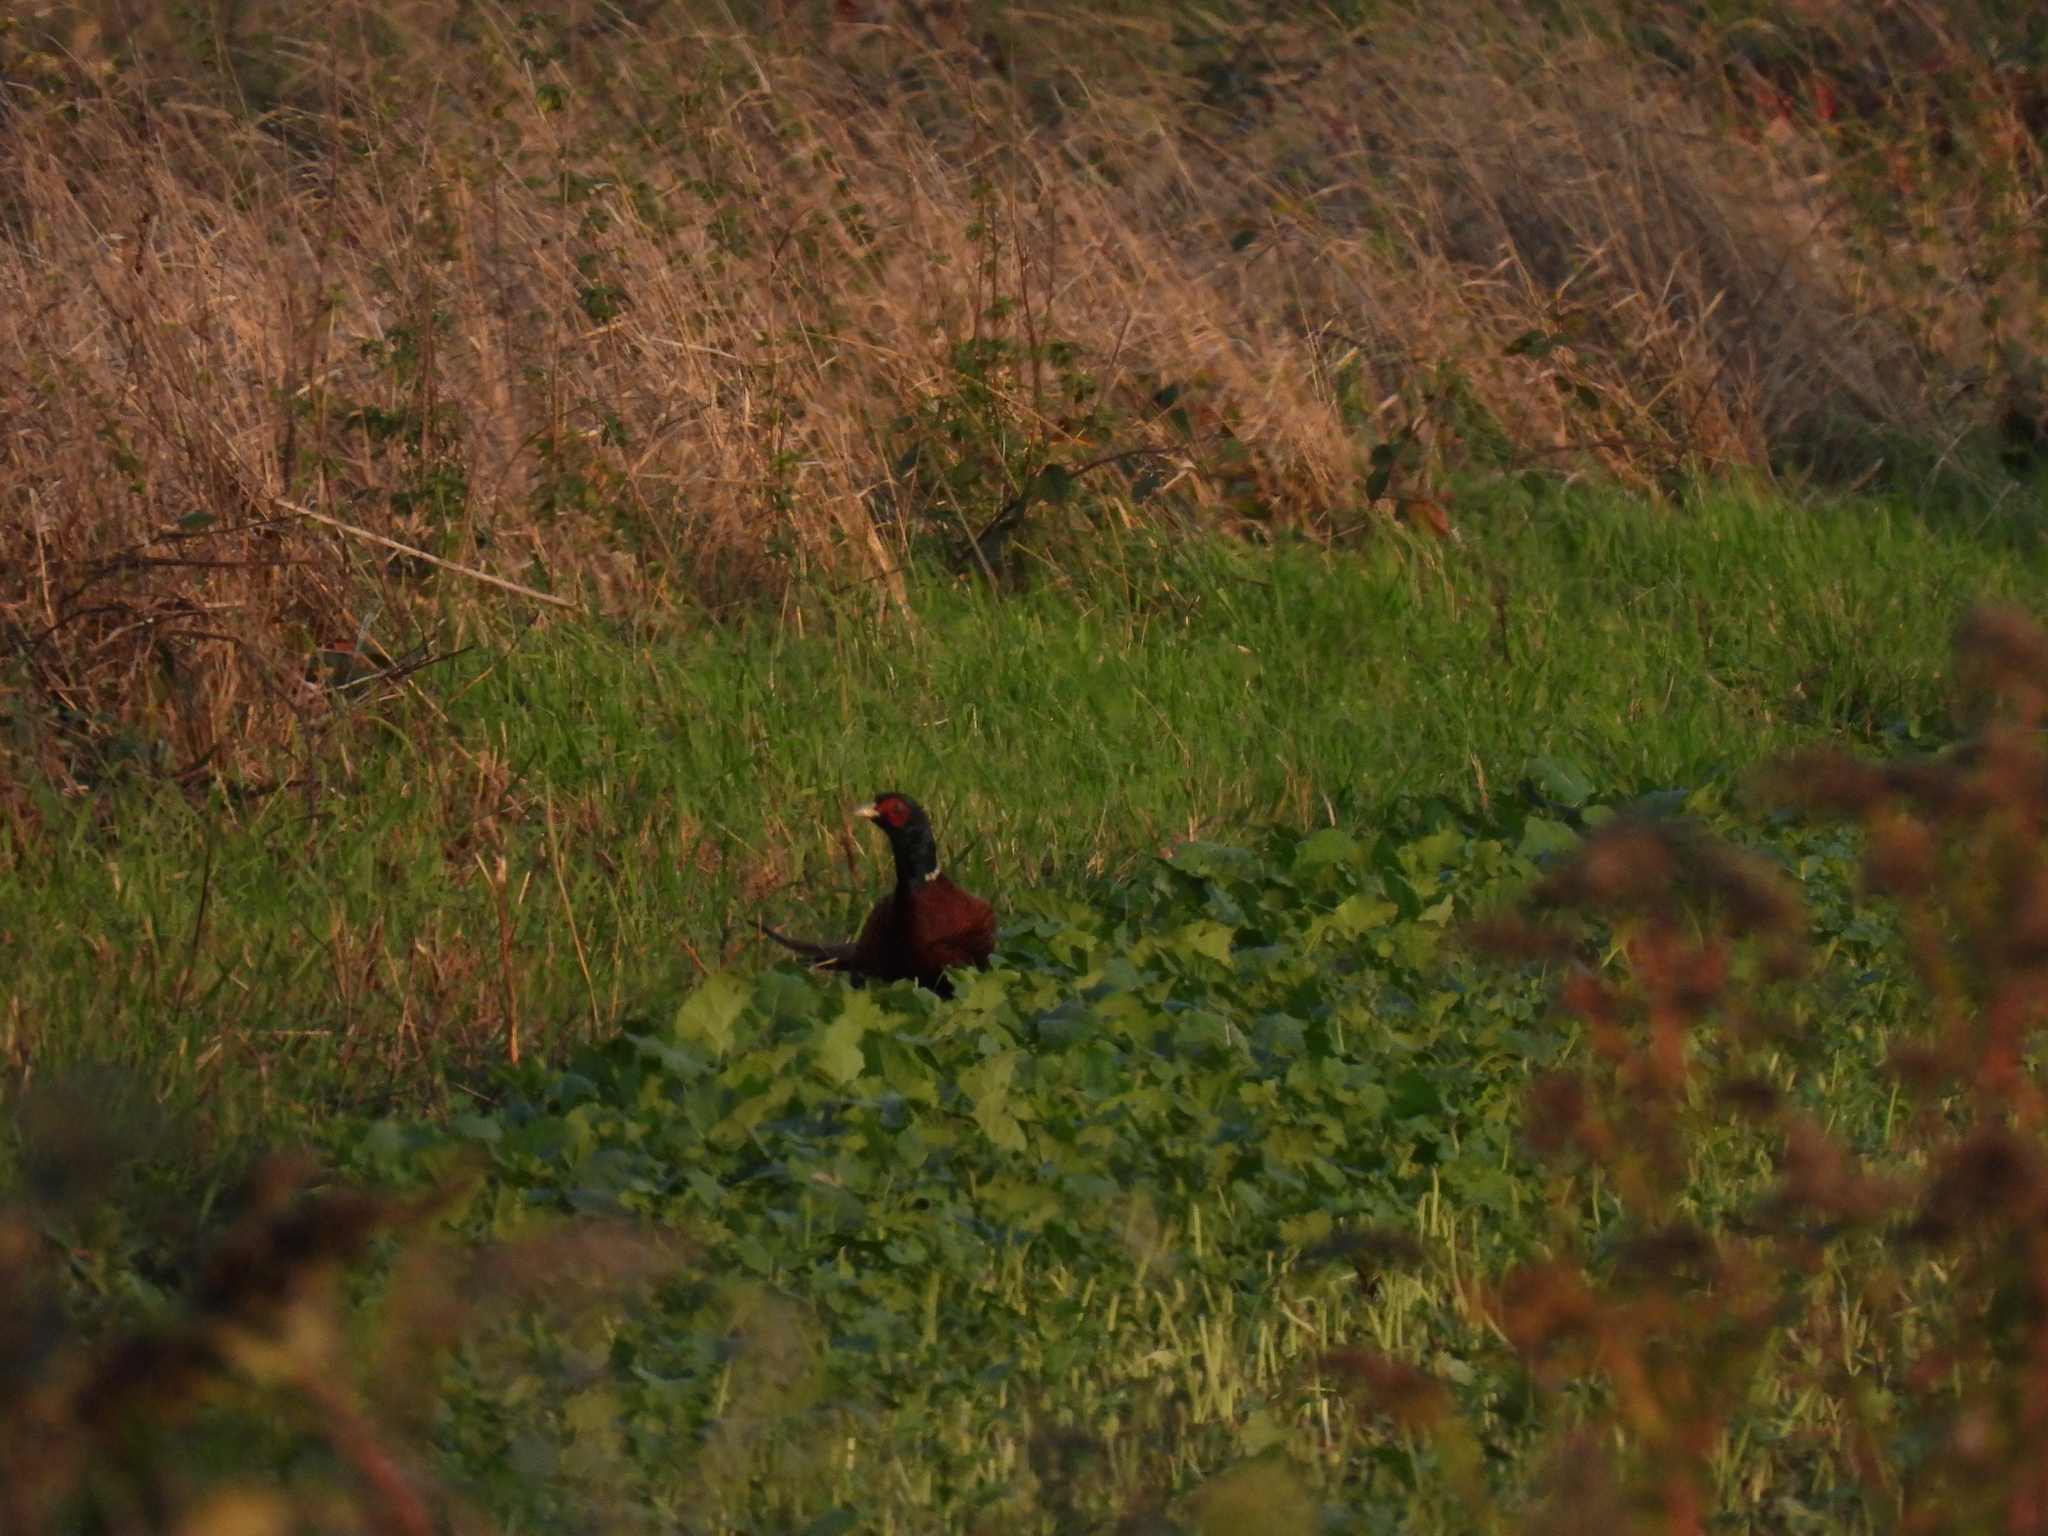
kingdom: Animalia
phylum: Chordata
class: Aves
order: Galliformes
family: Phasianidae
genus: Phasianus
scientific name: Phasianus colchicus
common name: Common pheasant
